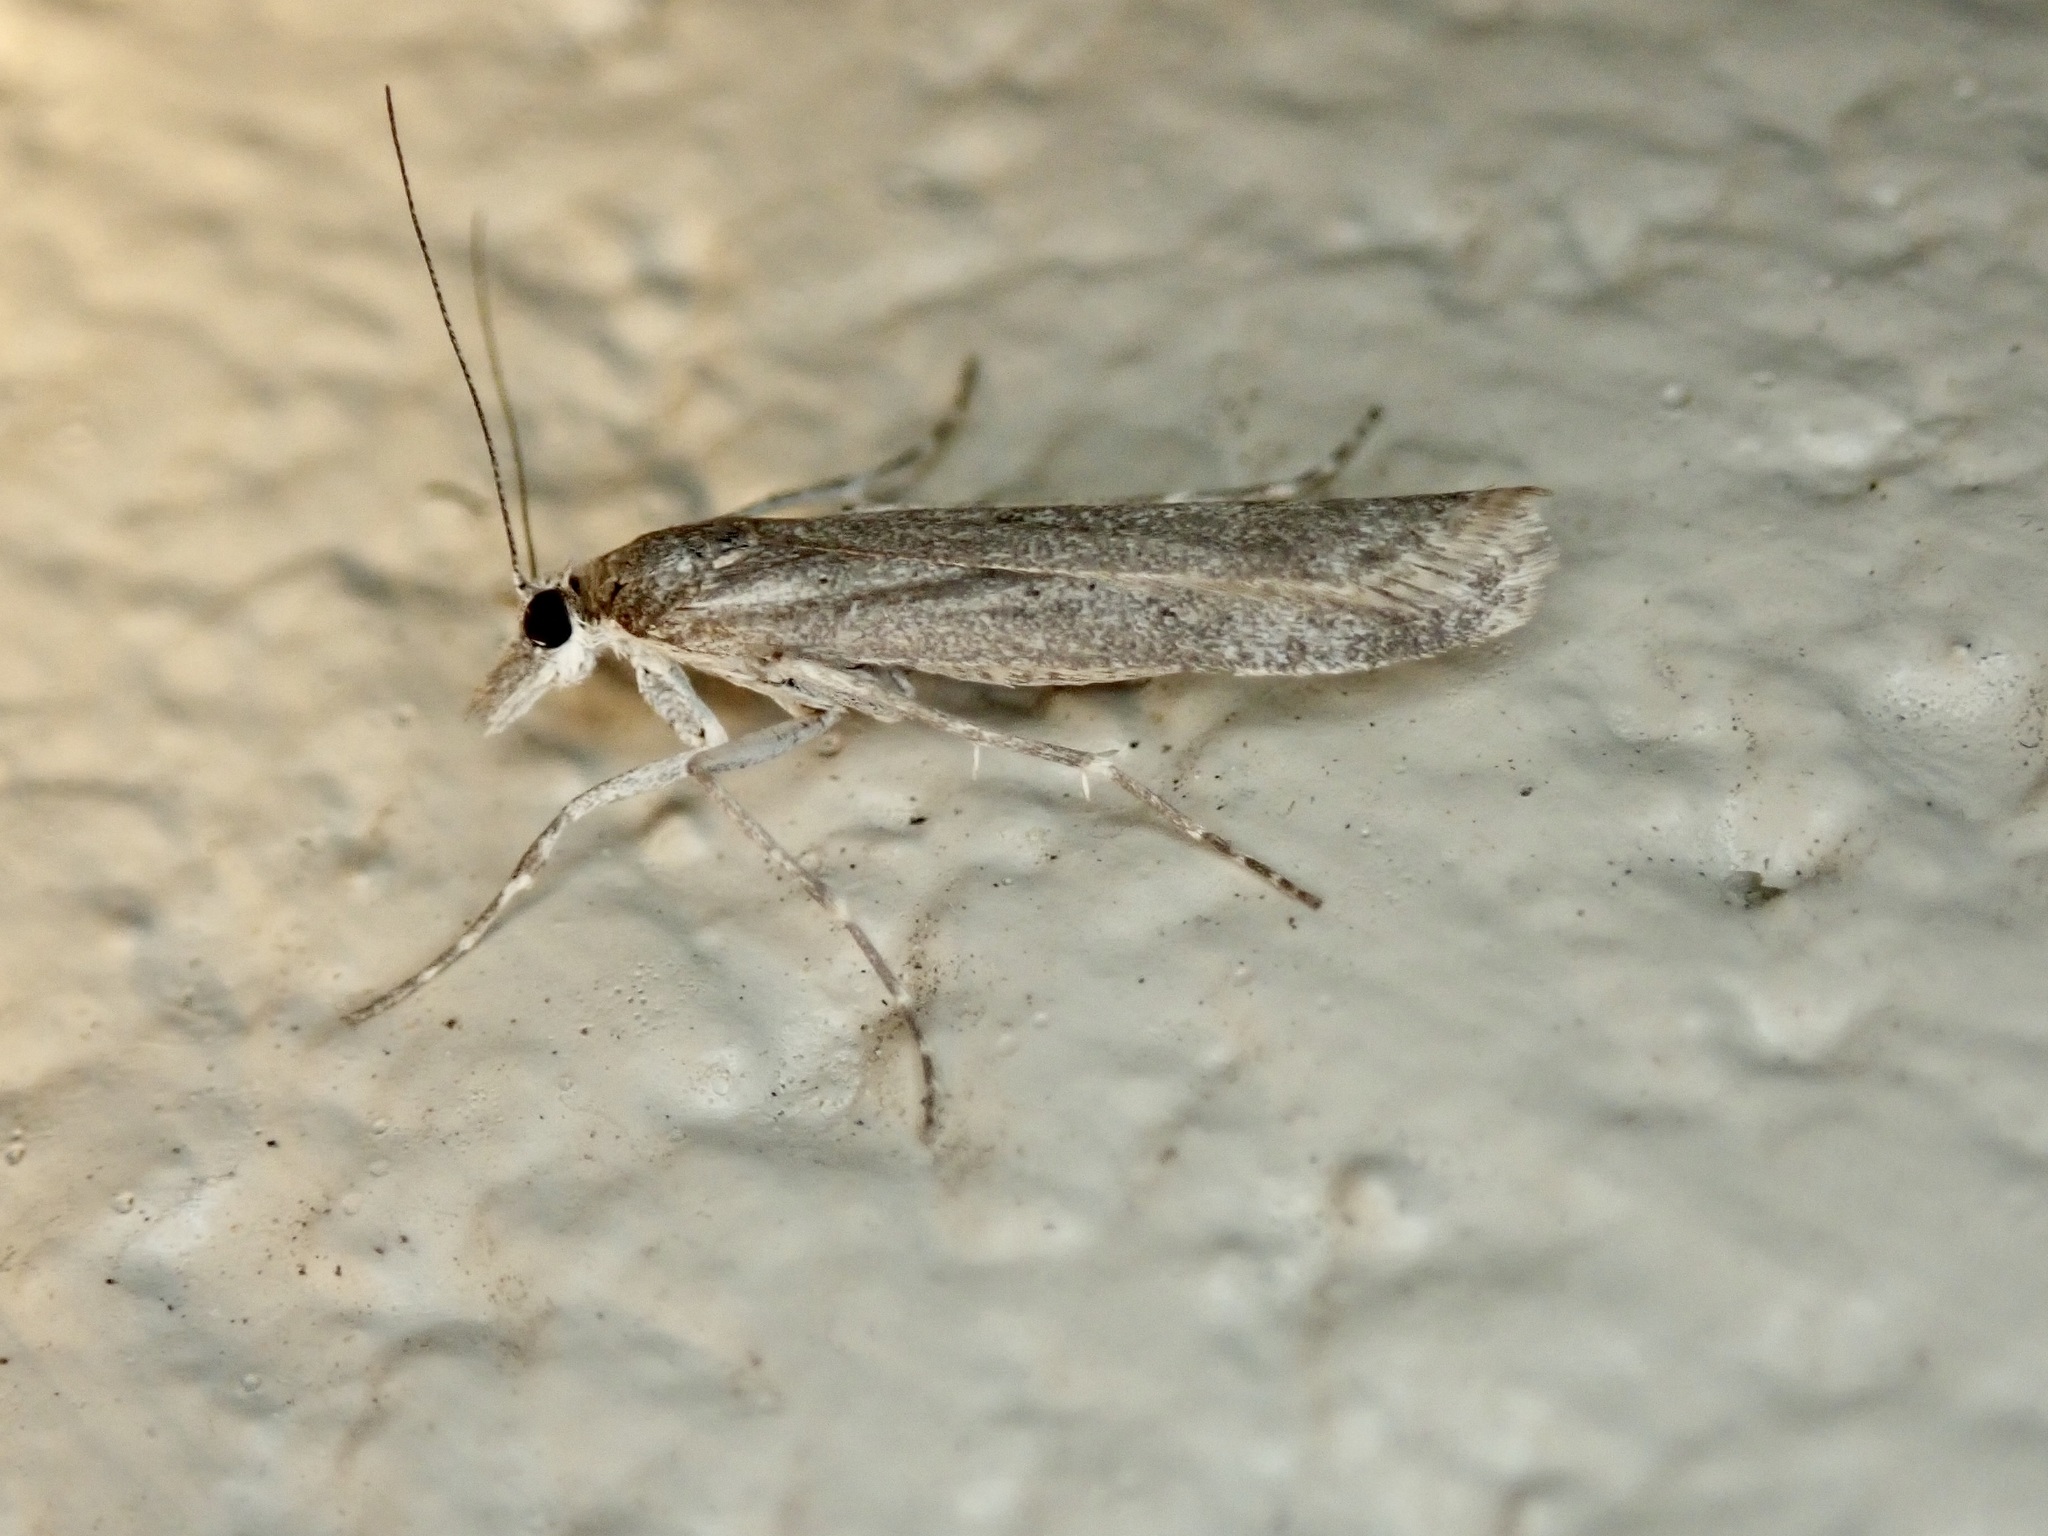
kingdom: Animalia
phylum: Arthropoda
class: Insecta
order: Lepidoptera
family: Crambidae
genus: Eudonia
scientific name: Eudonia leptalea
